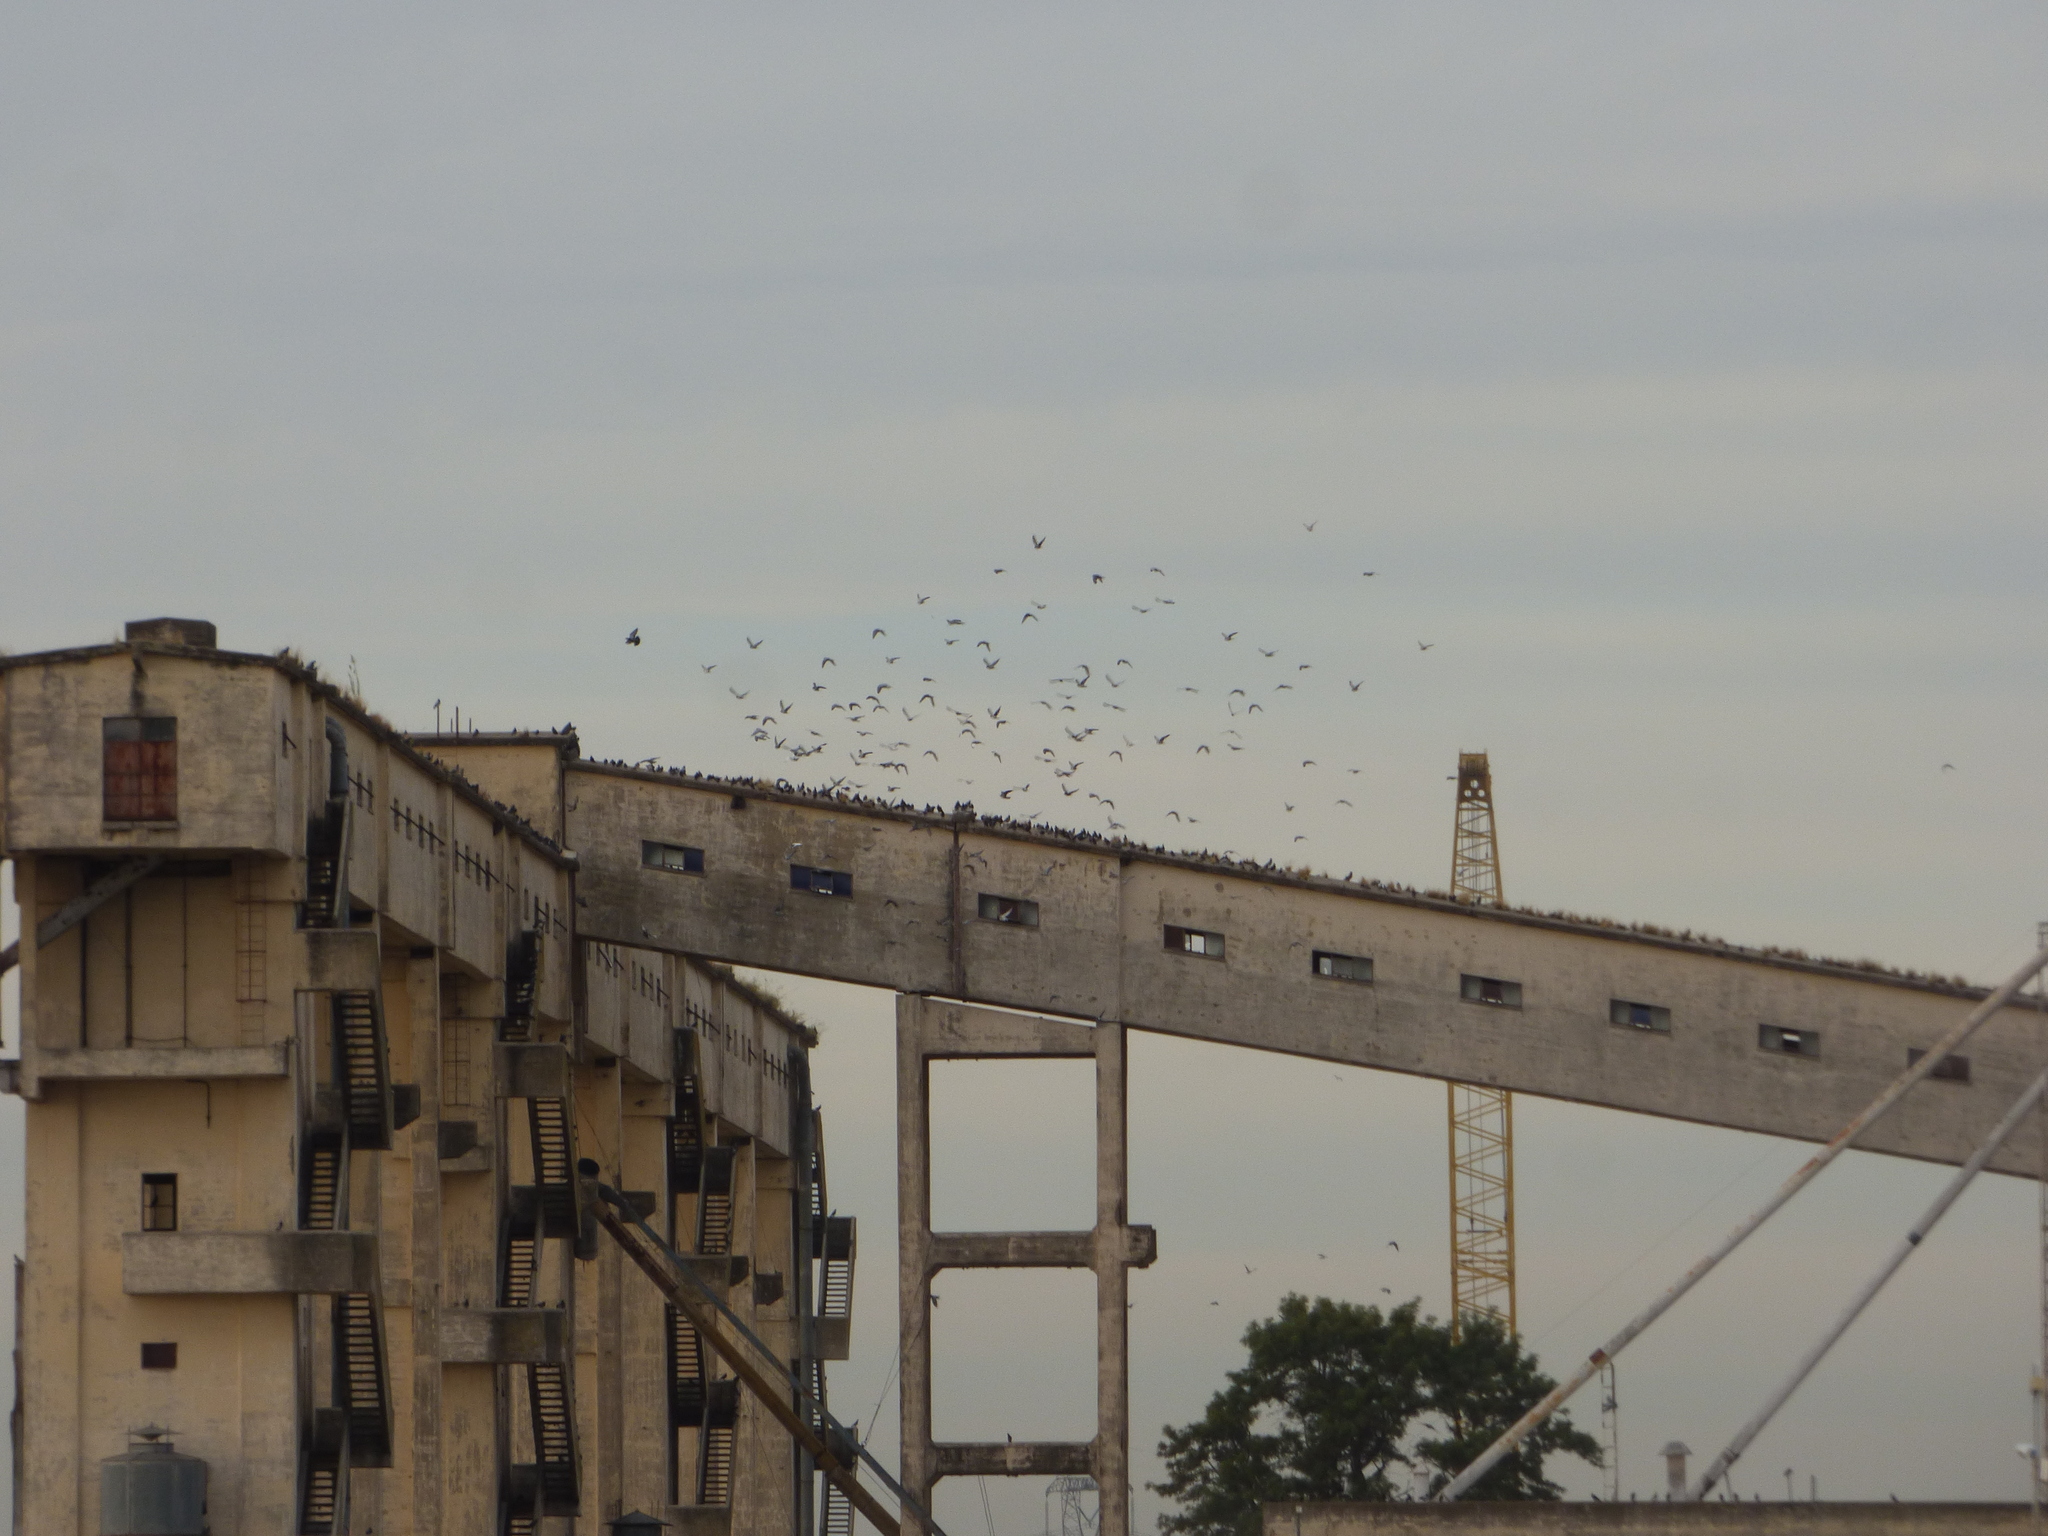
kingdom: Animalia
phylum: Chordata
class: Aves
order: Columbiformes
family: Columbidae
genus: Columba
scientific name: Columba livia
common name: Rock pigeon
